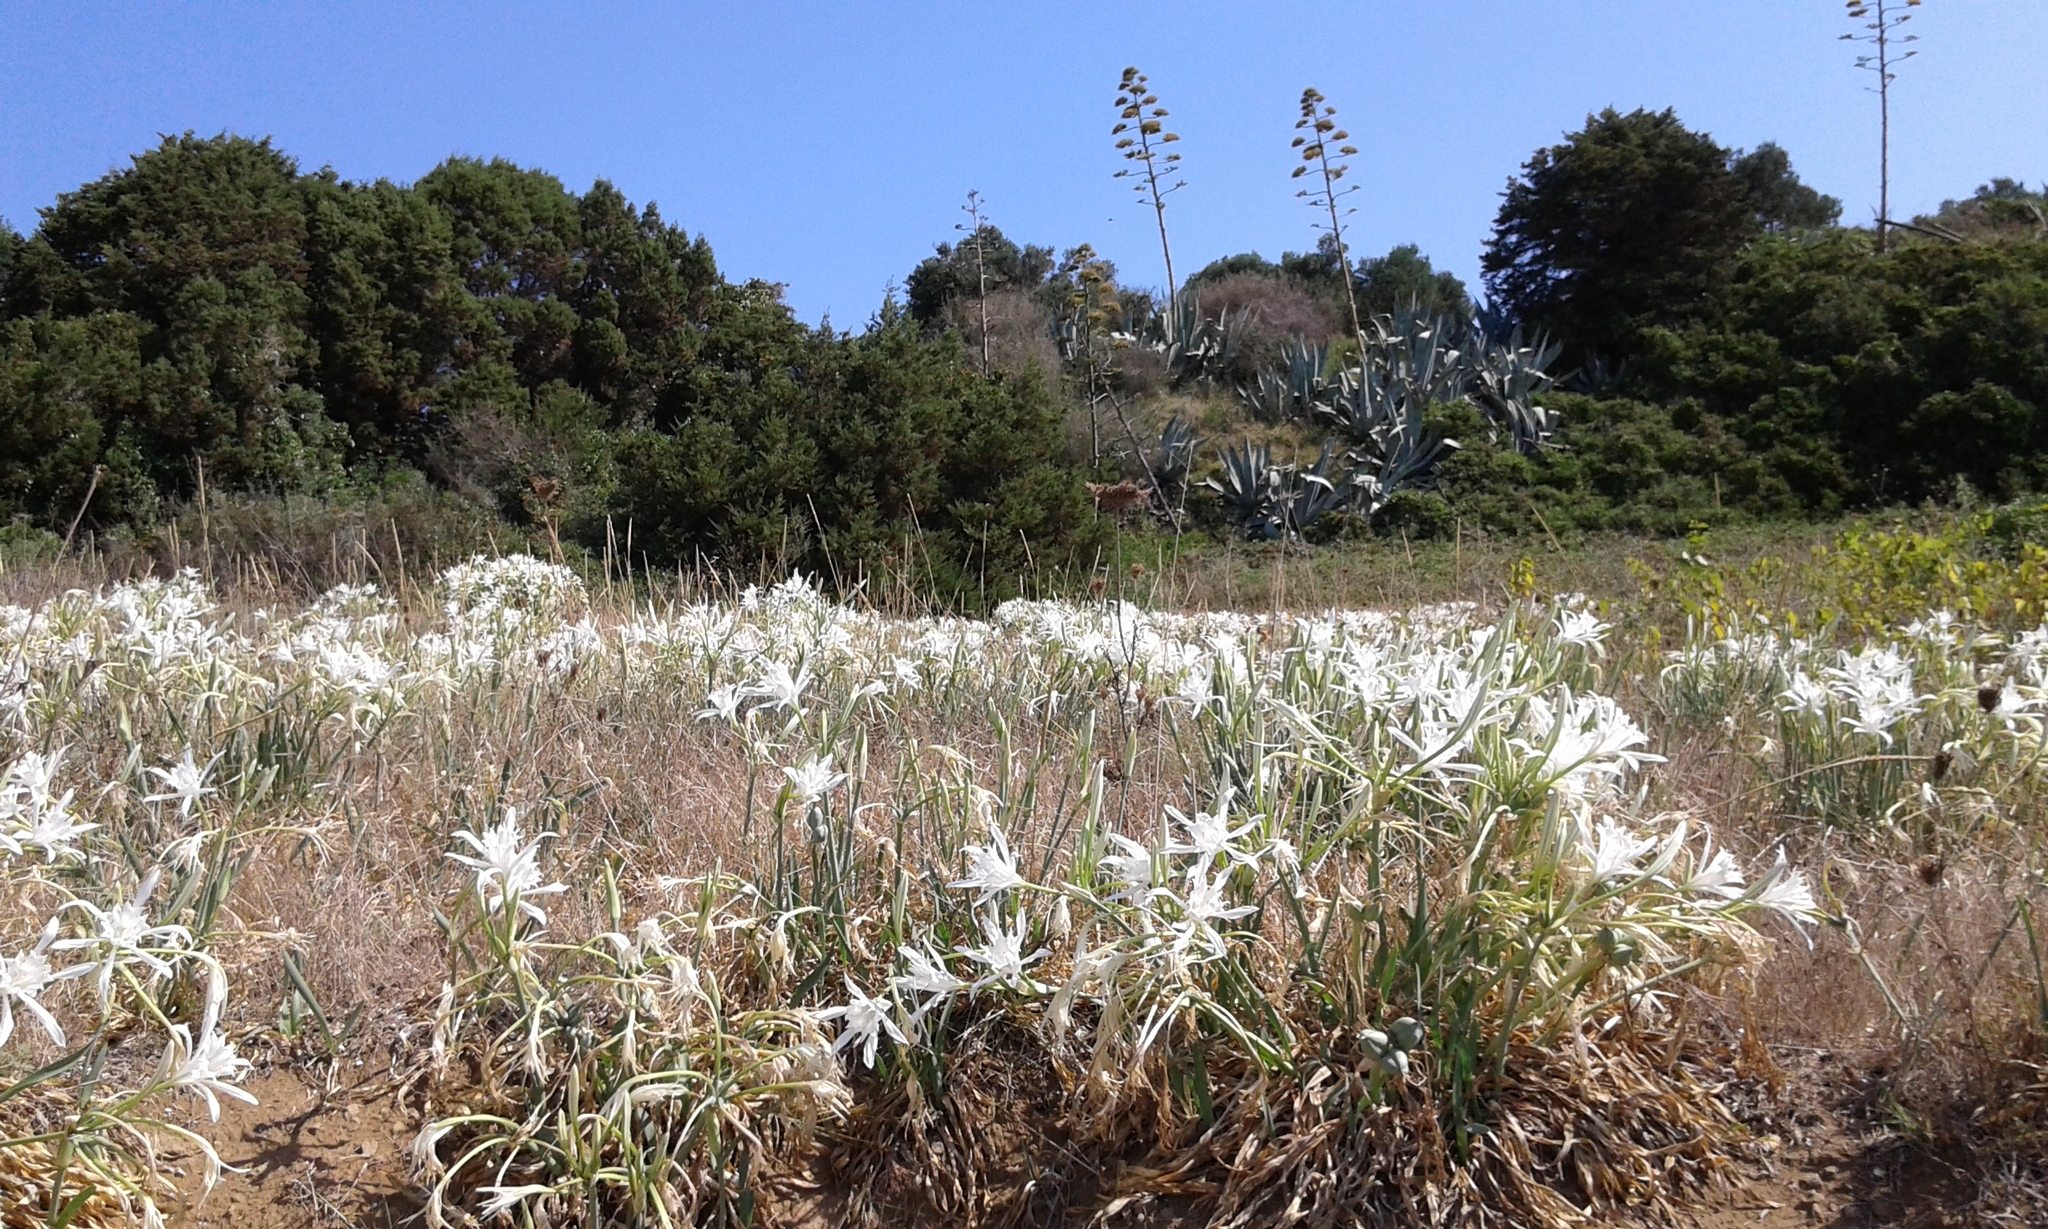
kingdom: Plantae
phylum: Tracheophyta
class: Liliopsida
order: Asparagales
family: Amaryllidaceae
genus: Pancratium
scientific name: Pancratium maritimum
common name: Sea-daffodil
